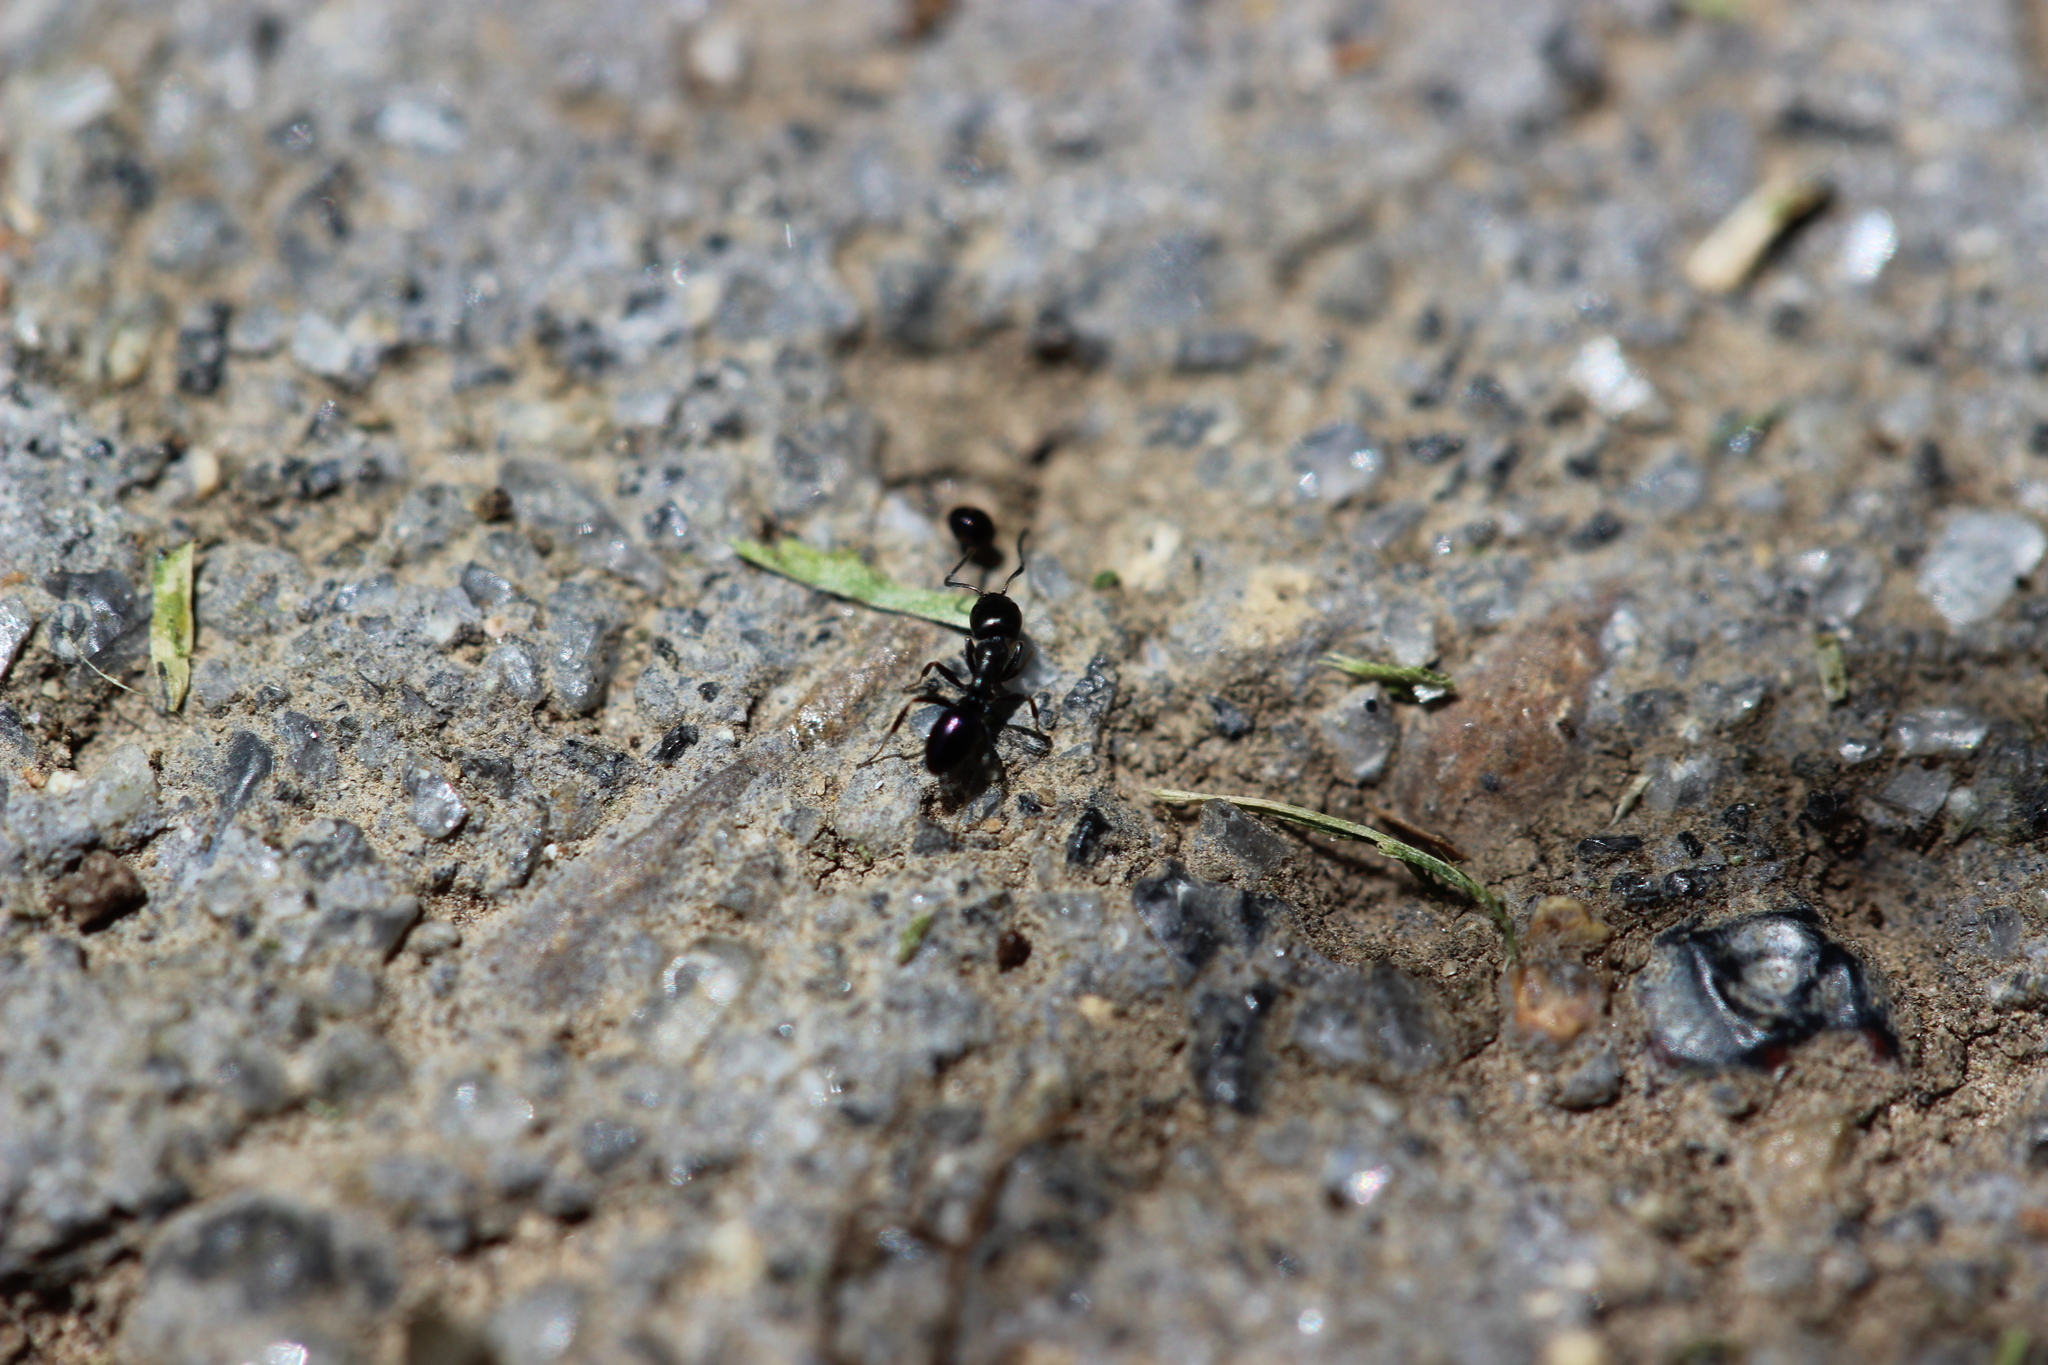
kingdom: Animalia
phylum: Arthropoda
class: Insecta
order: Hymenoptera
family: Formicidae
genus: Ochetellus
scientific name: Ochetellus glaber
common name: Ant
